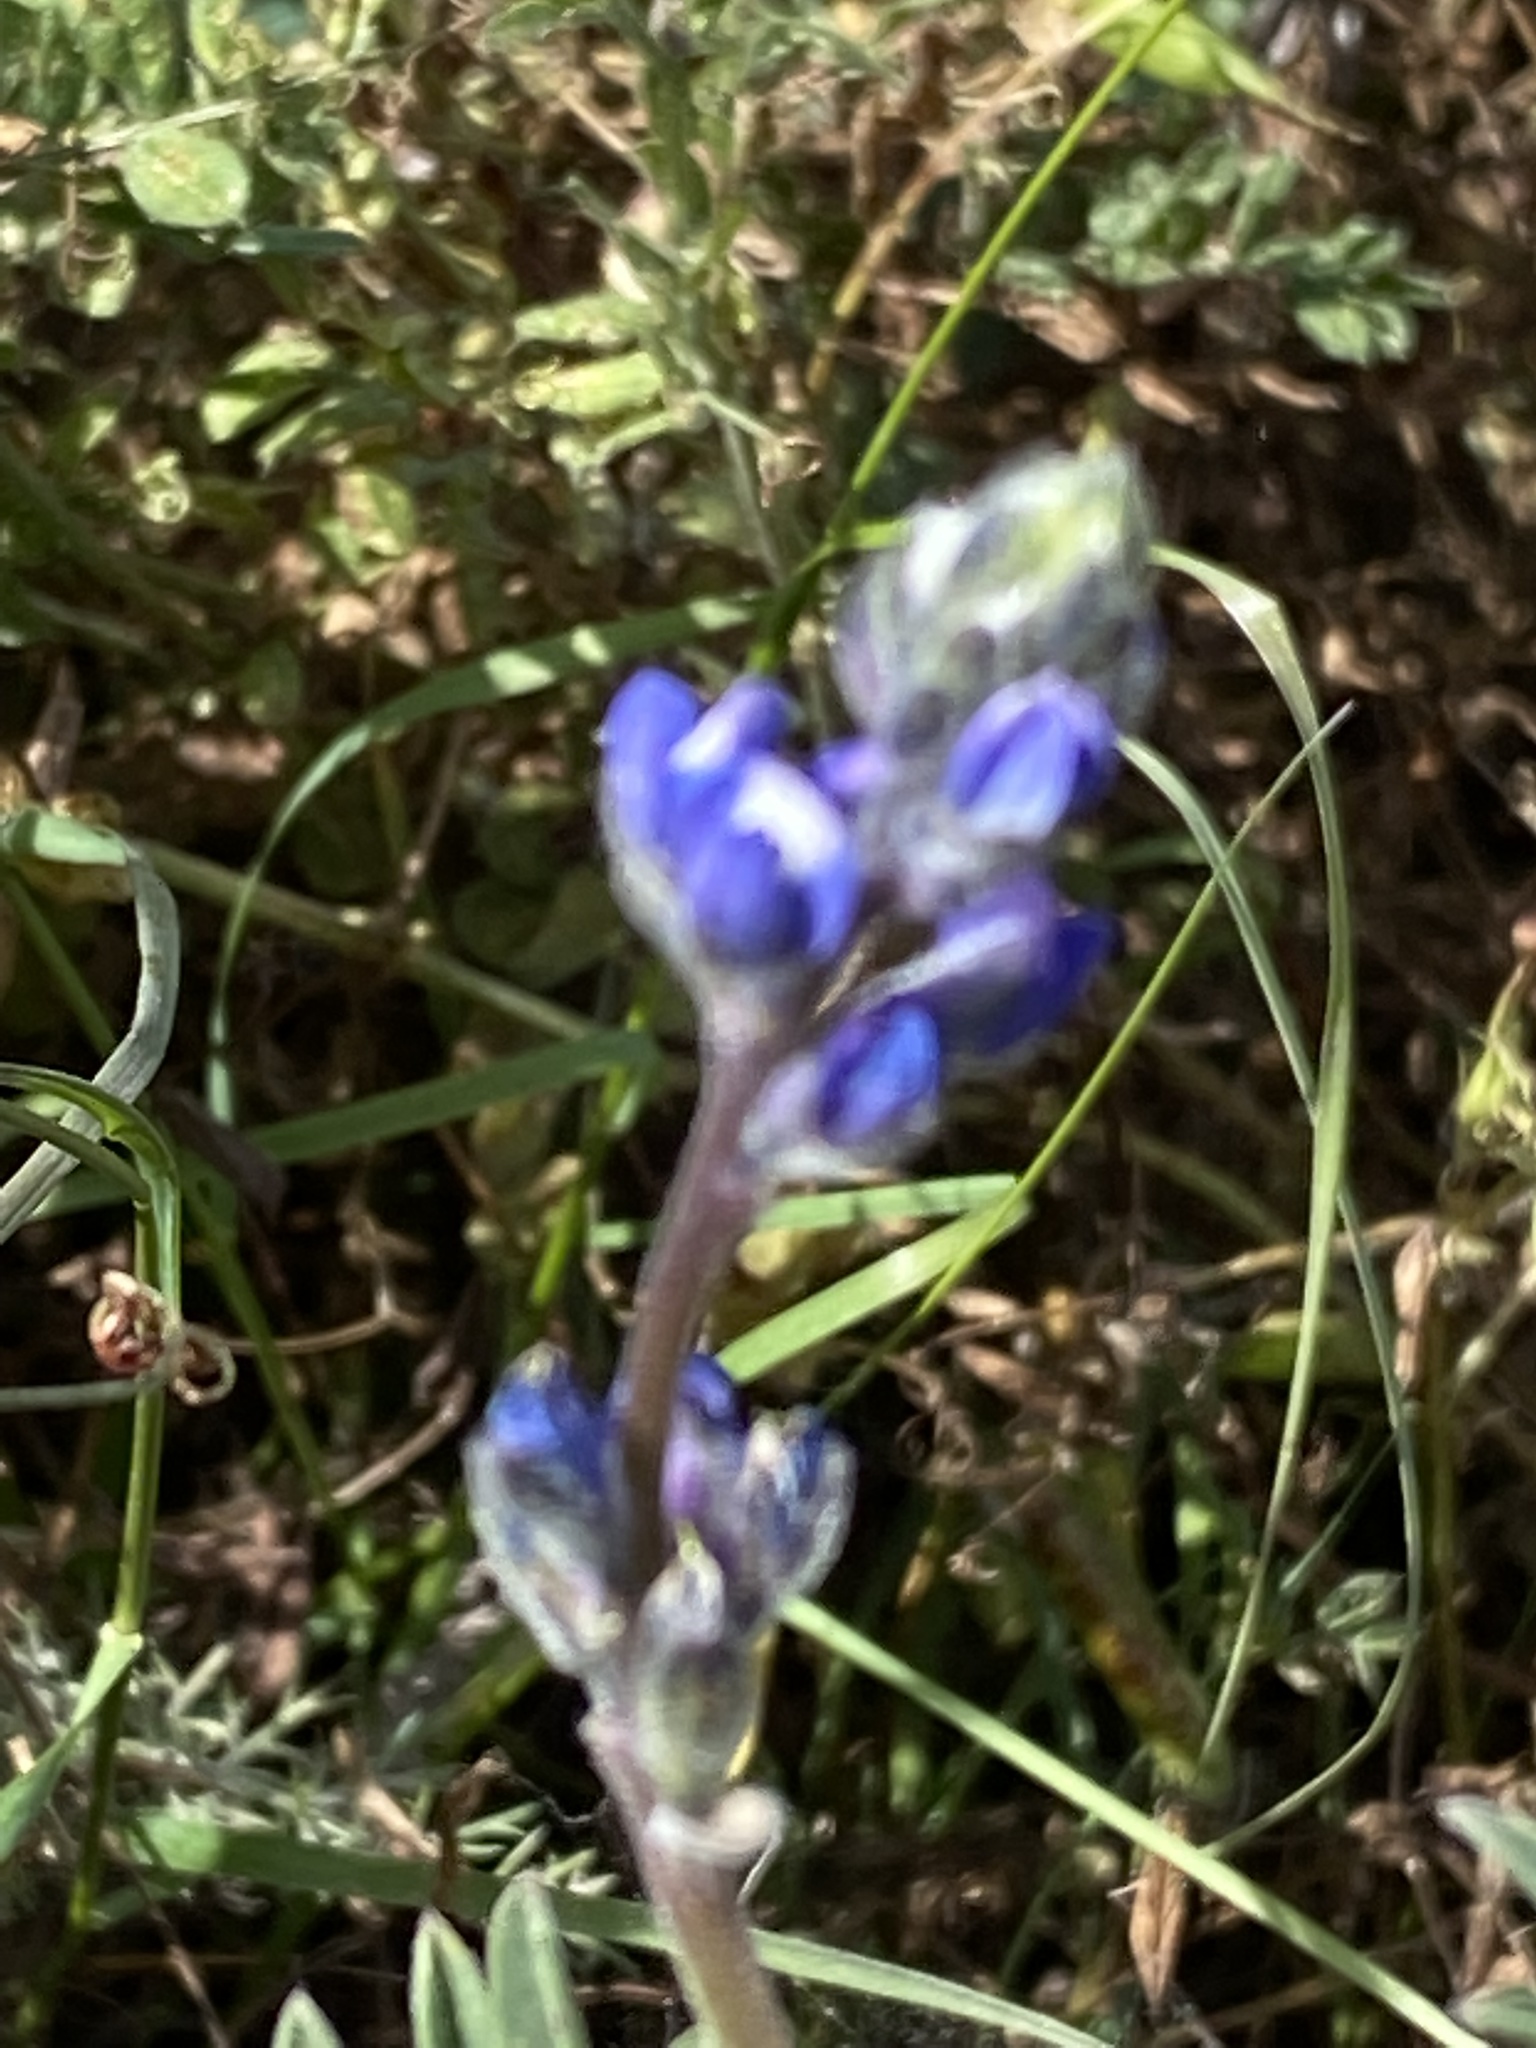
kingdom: Plantae
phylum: Tracheophyta
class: Magnoliopsida
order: Fabales
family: Fabaceae
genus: Lupinus
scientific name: Lupinus bicolor
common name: Miniature lupine
